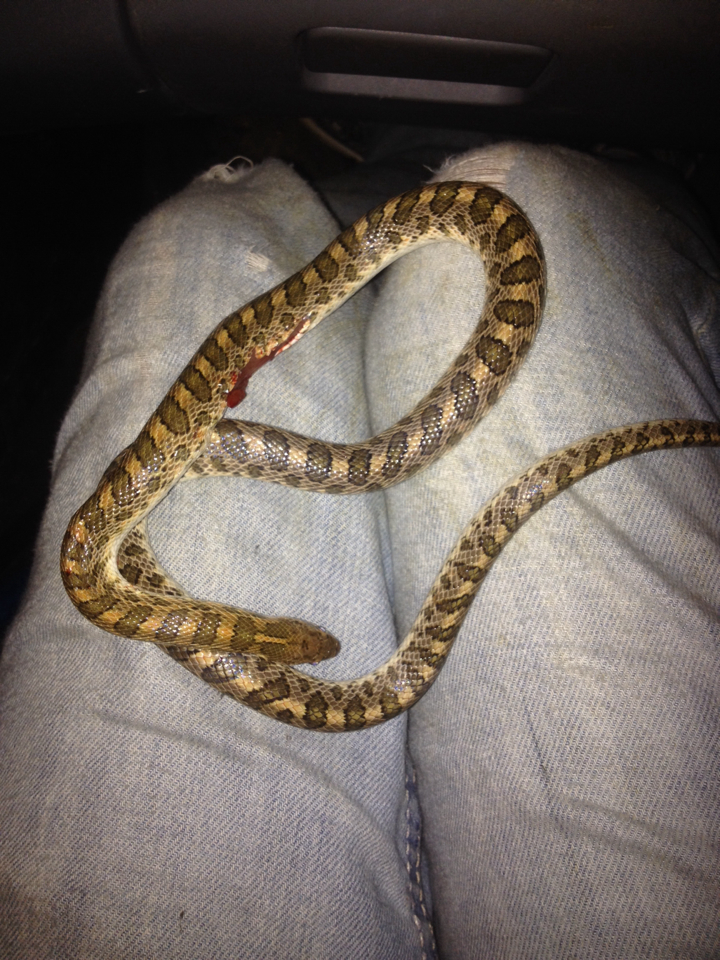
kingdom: Animalia
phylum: Chordata
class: Squamata
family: Colubridae
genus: Arizona
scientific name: Arizona elegans
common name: Glossy snake
